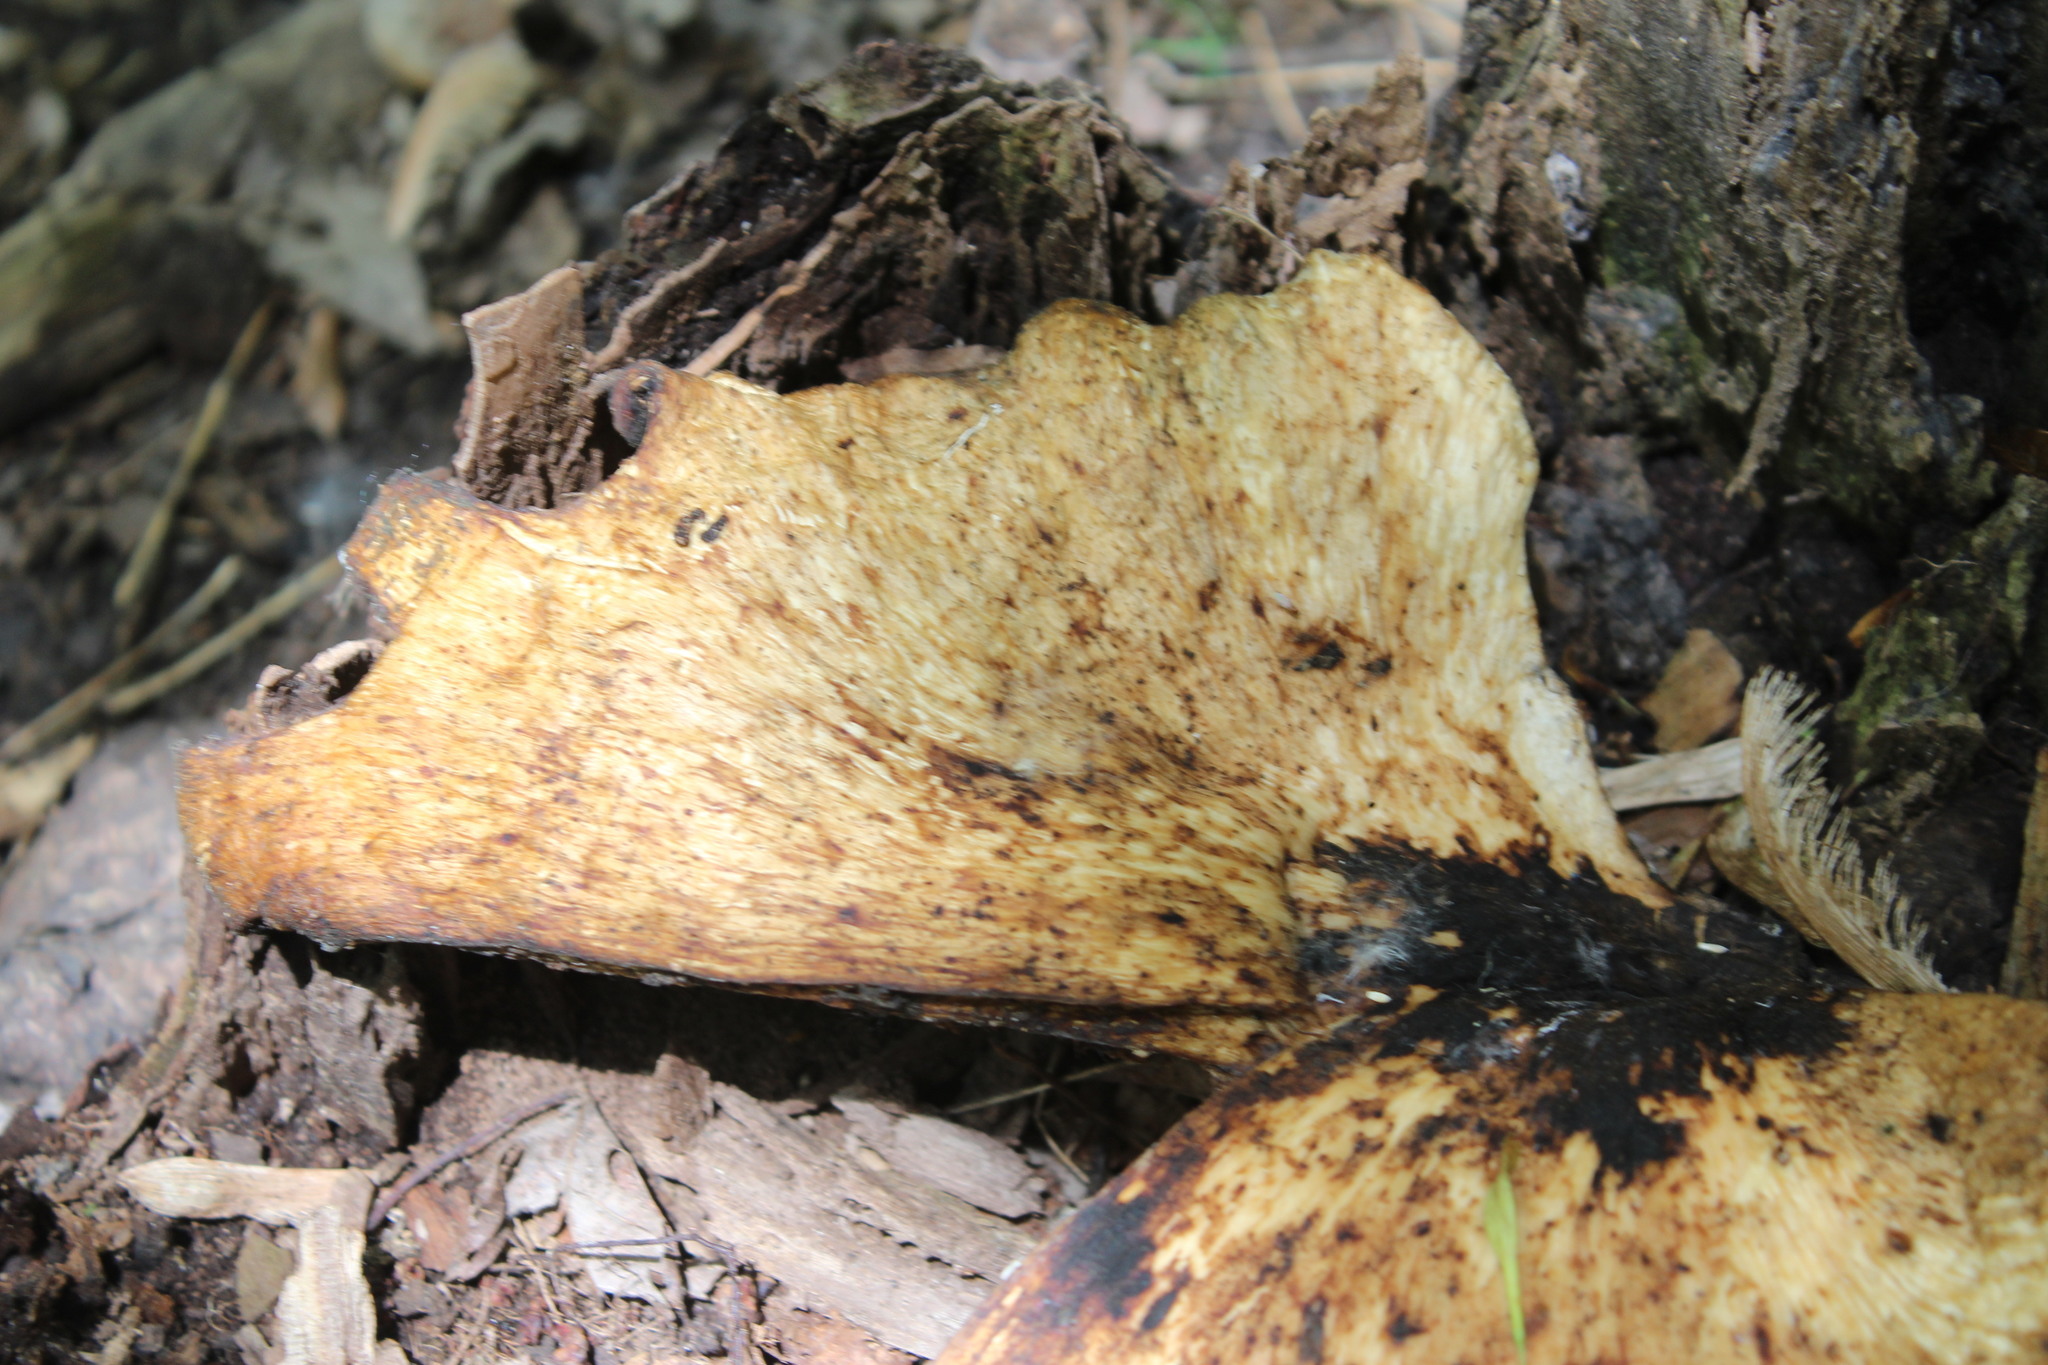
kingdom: Fungi
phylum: Basidiomycota
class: Agaricomycetes
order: Polyporales
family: Polyporaceae
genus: Cerioporus
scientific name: Cerioporus squamosus
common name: Dryad's saddle
